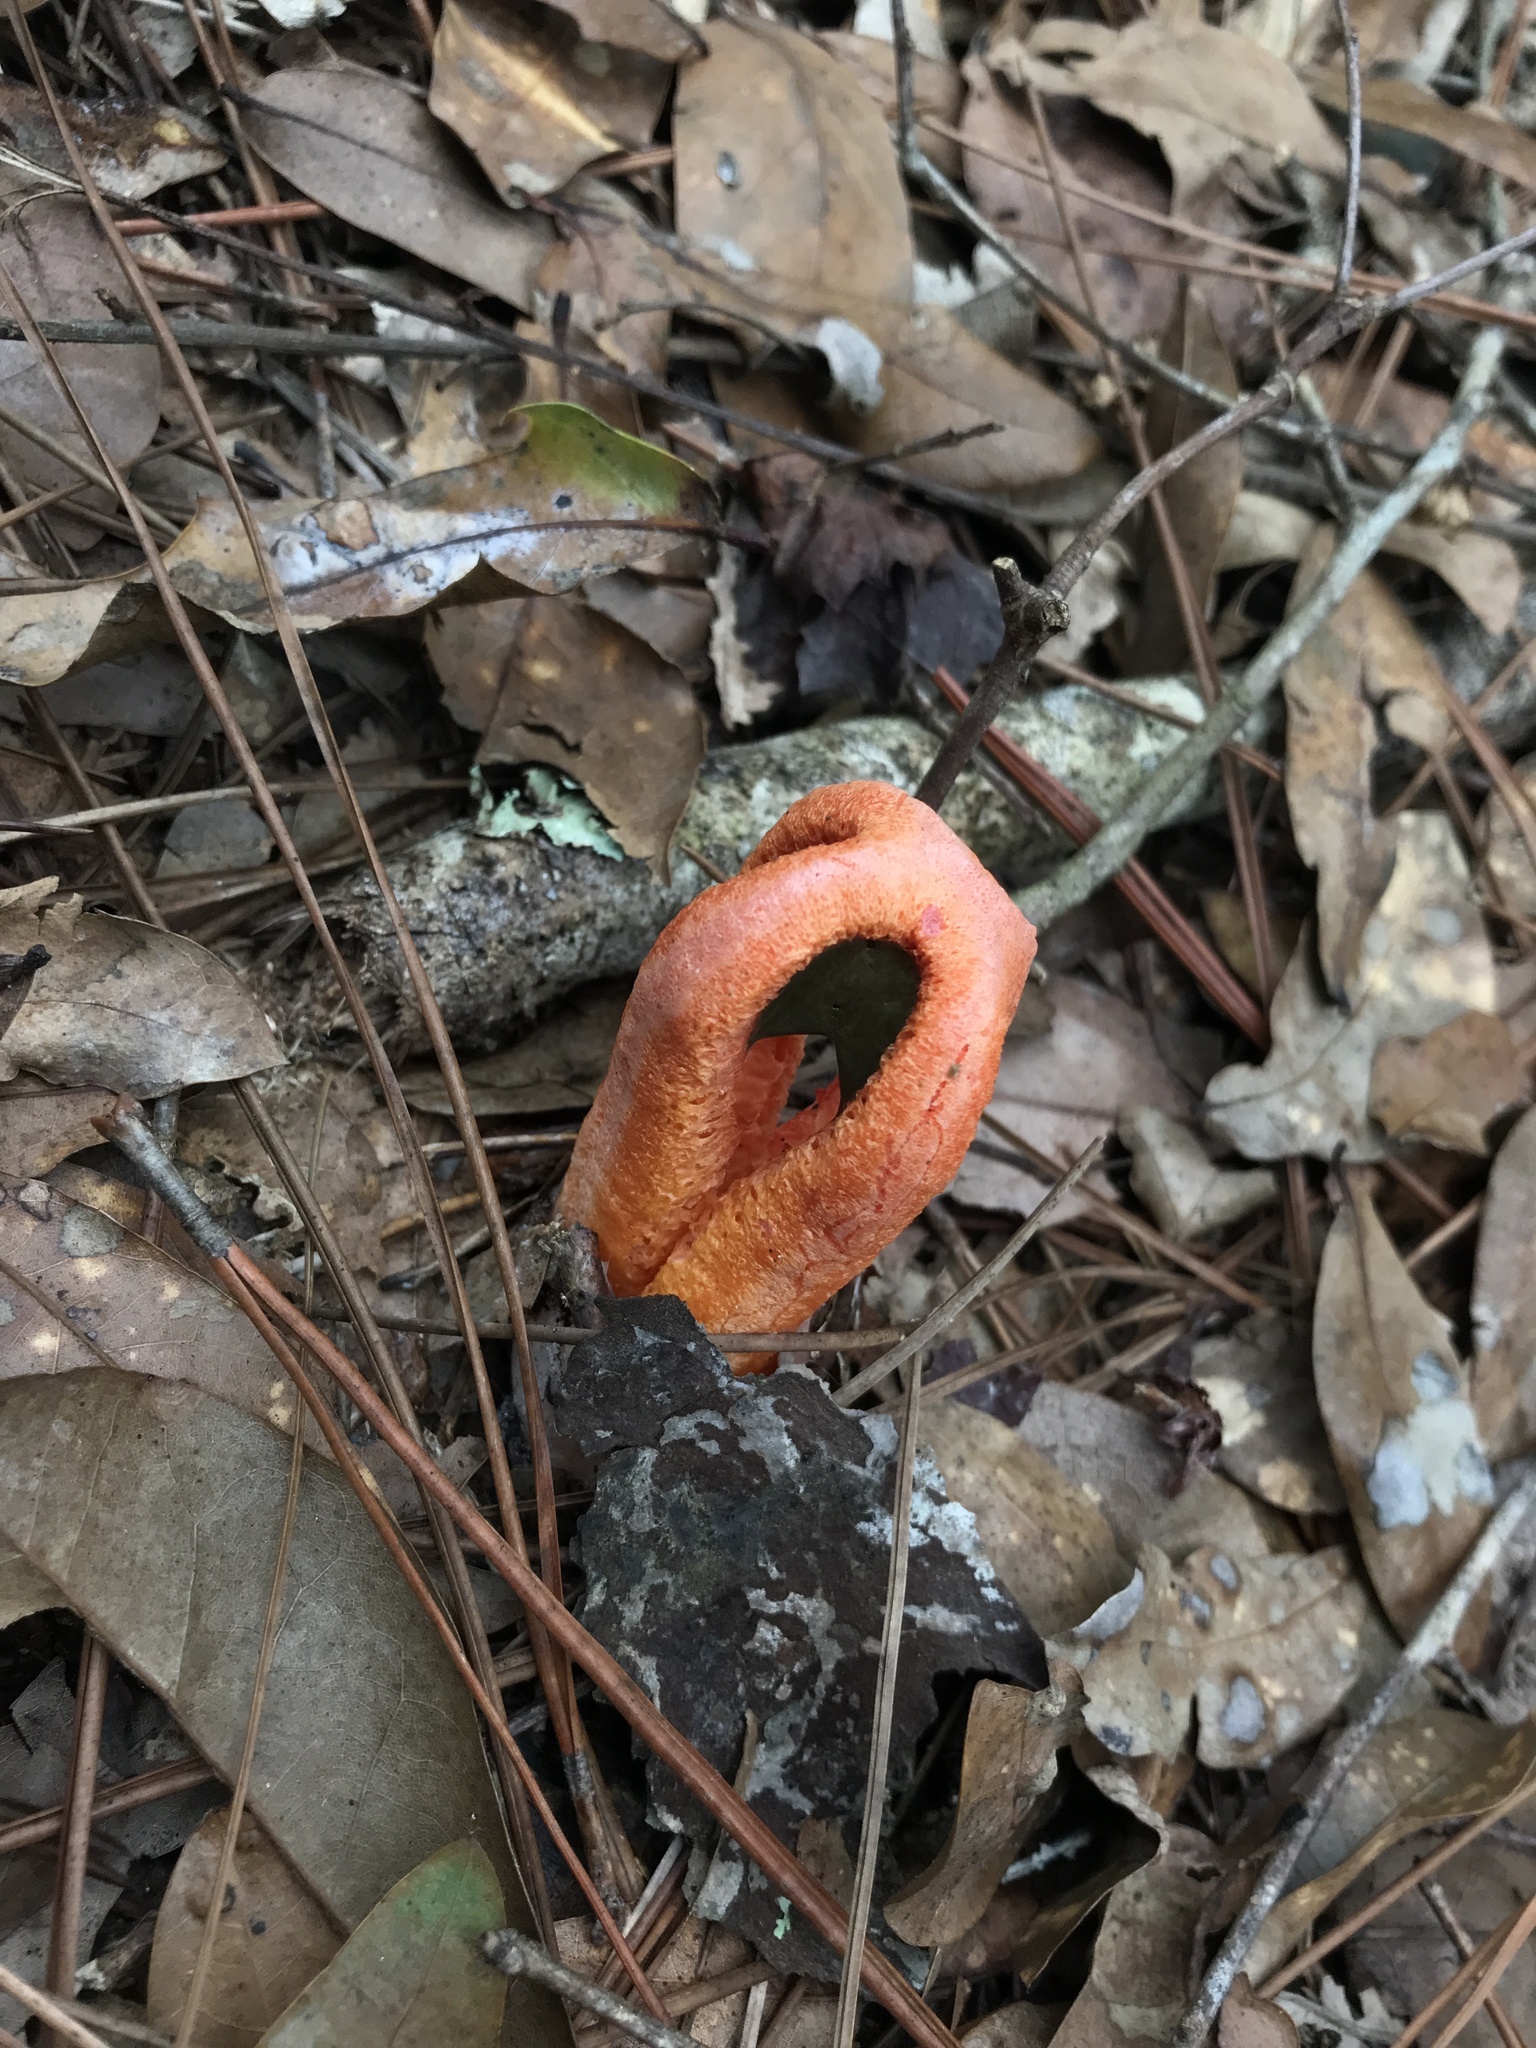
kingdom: Fungi
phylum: Basidiomycota
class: Agaricomycetes
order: Phallales
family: Phallaceae
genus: Clathrus
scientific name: Clathrus columnatus
